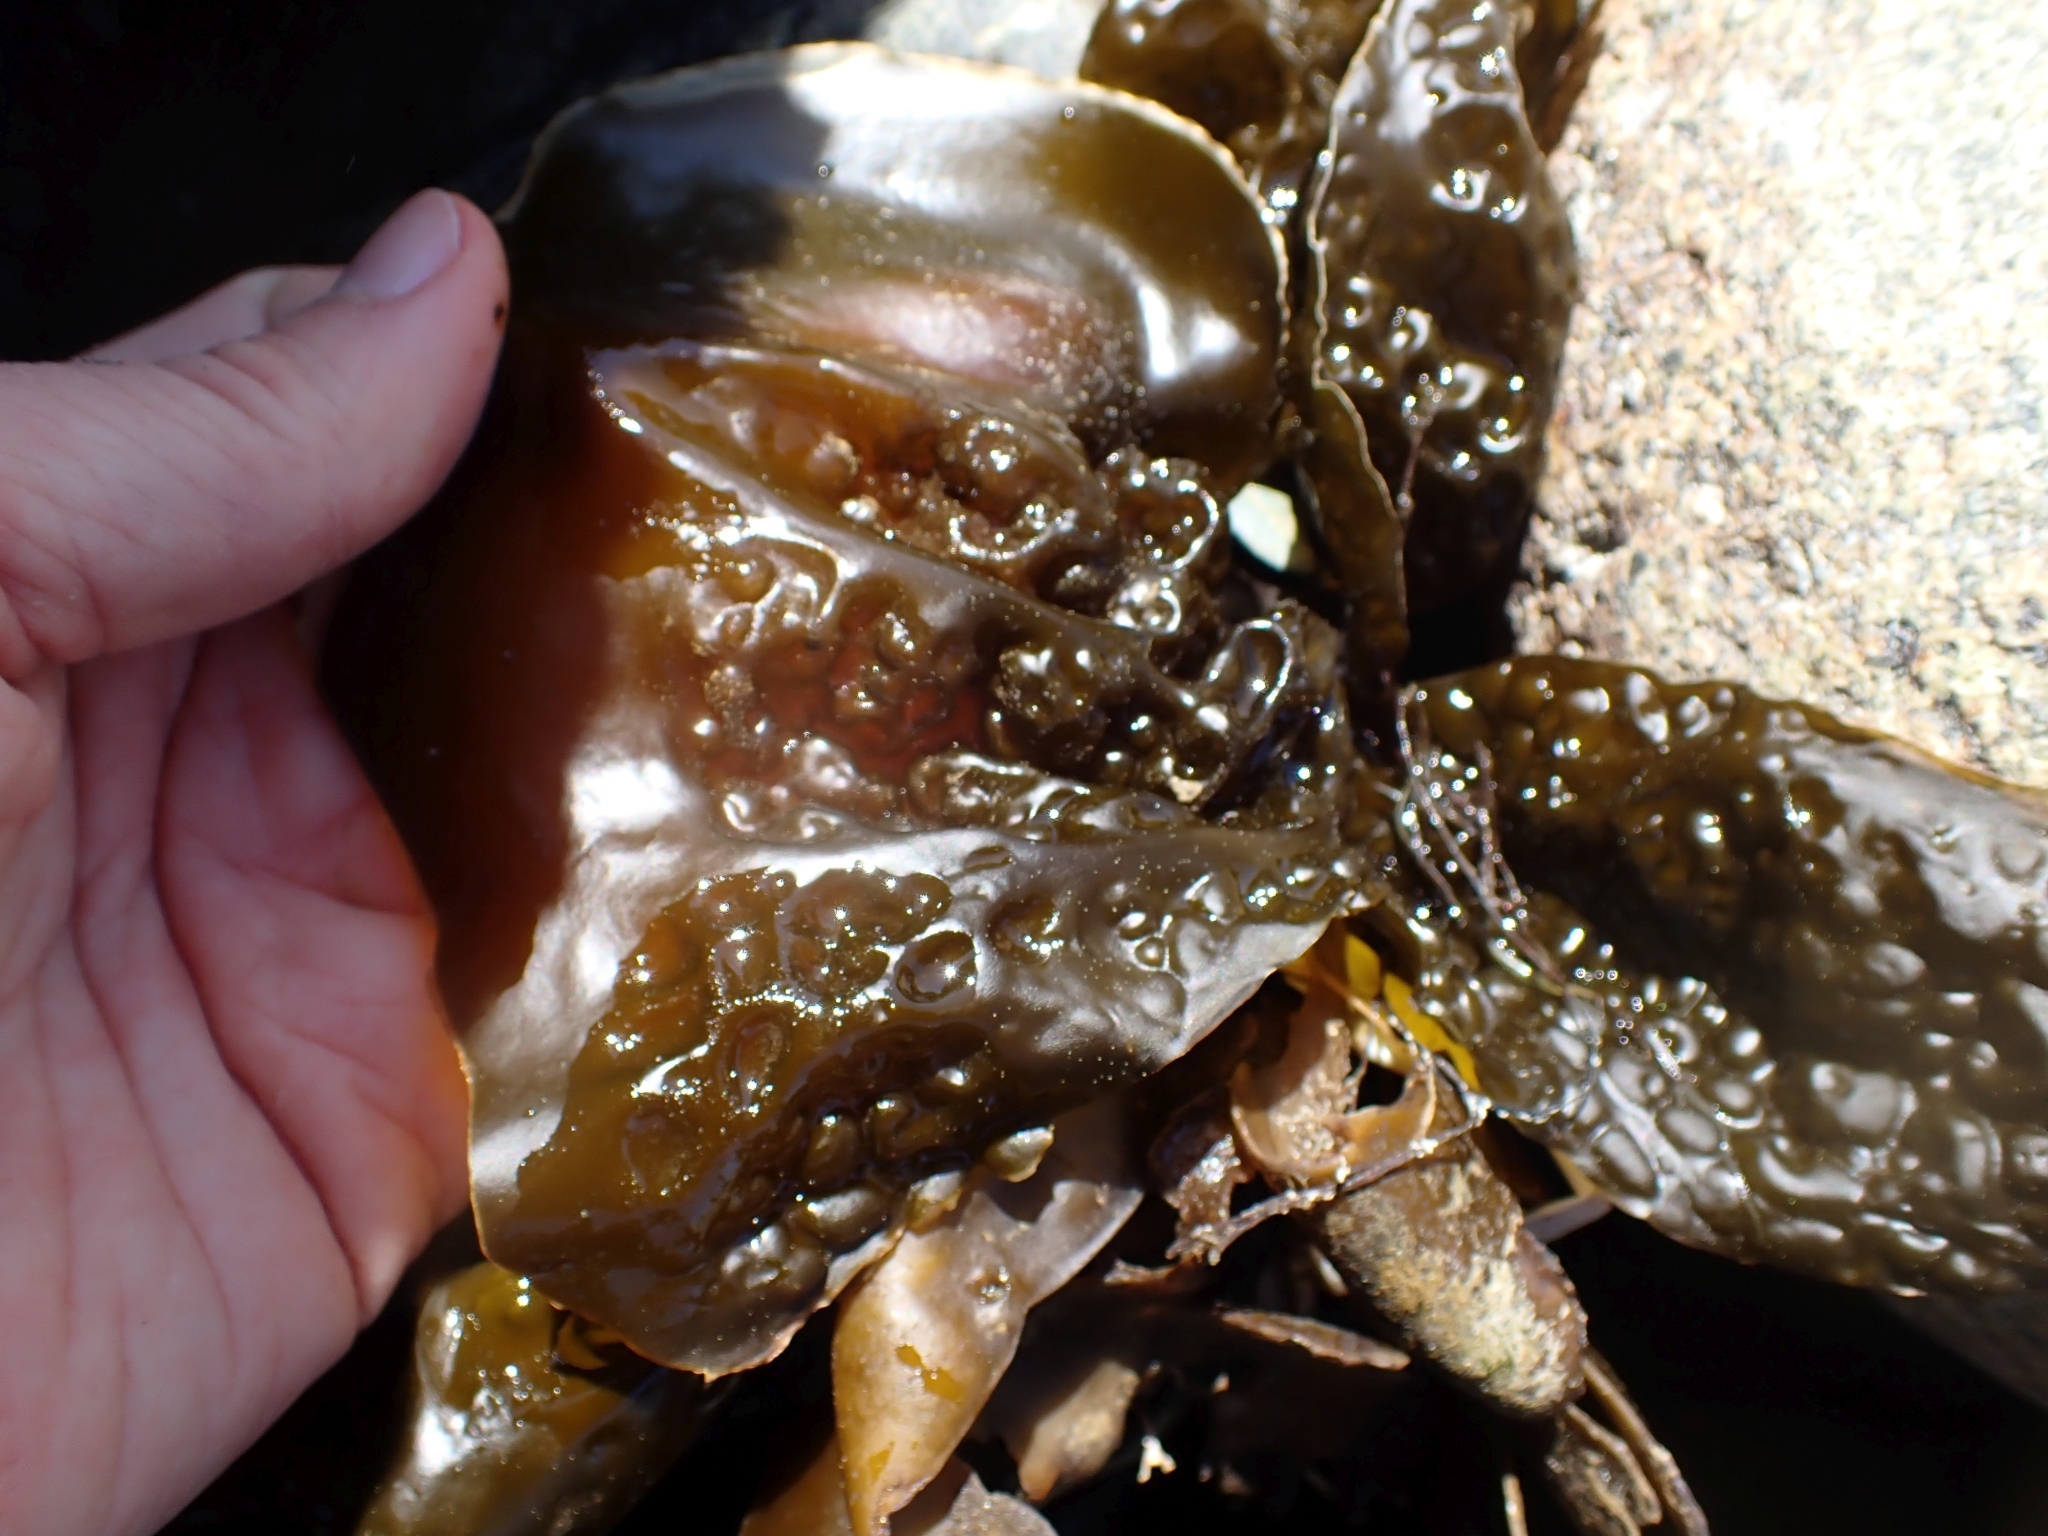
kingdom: Chromista
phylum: Ochrophyta
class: Phaeophyceae
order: Laminariales
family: Laminariaceae
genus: Hedophyllum
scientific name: Hedophyllum sessile
